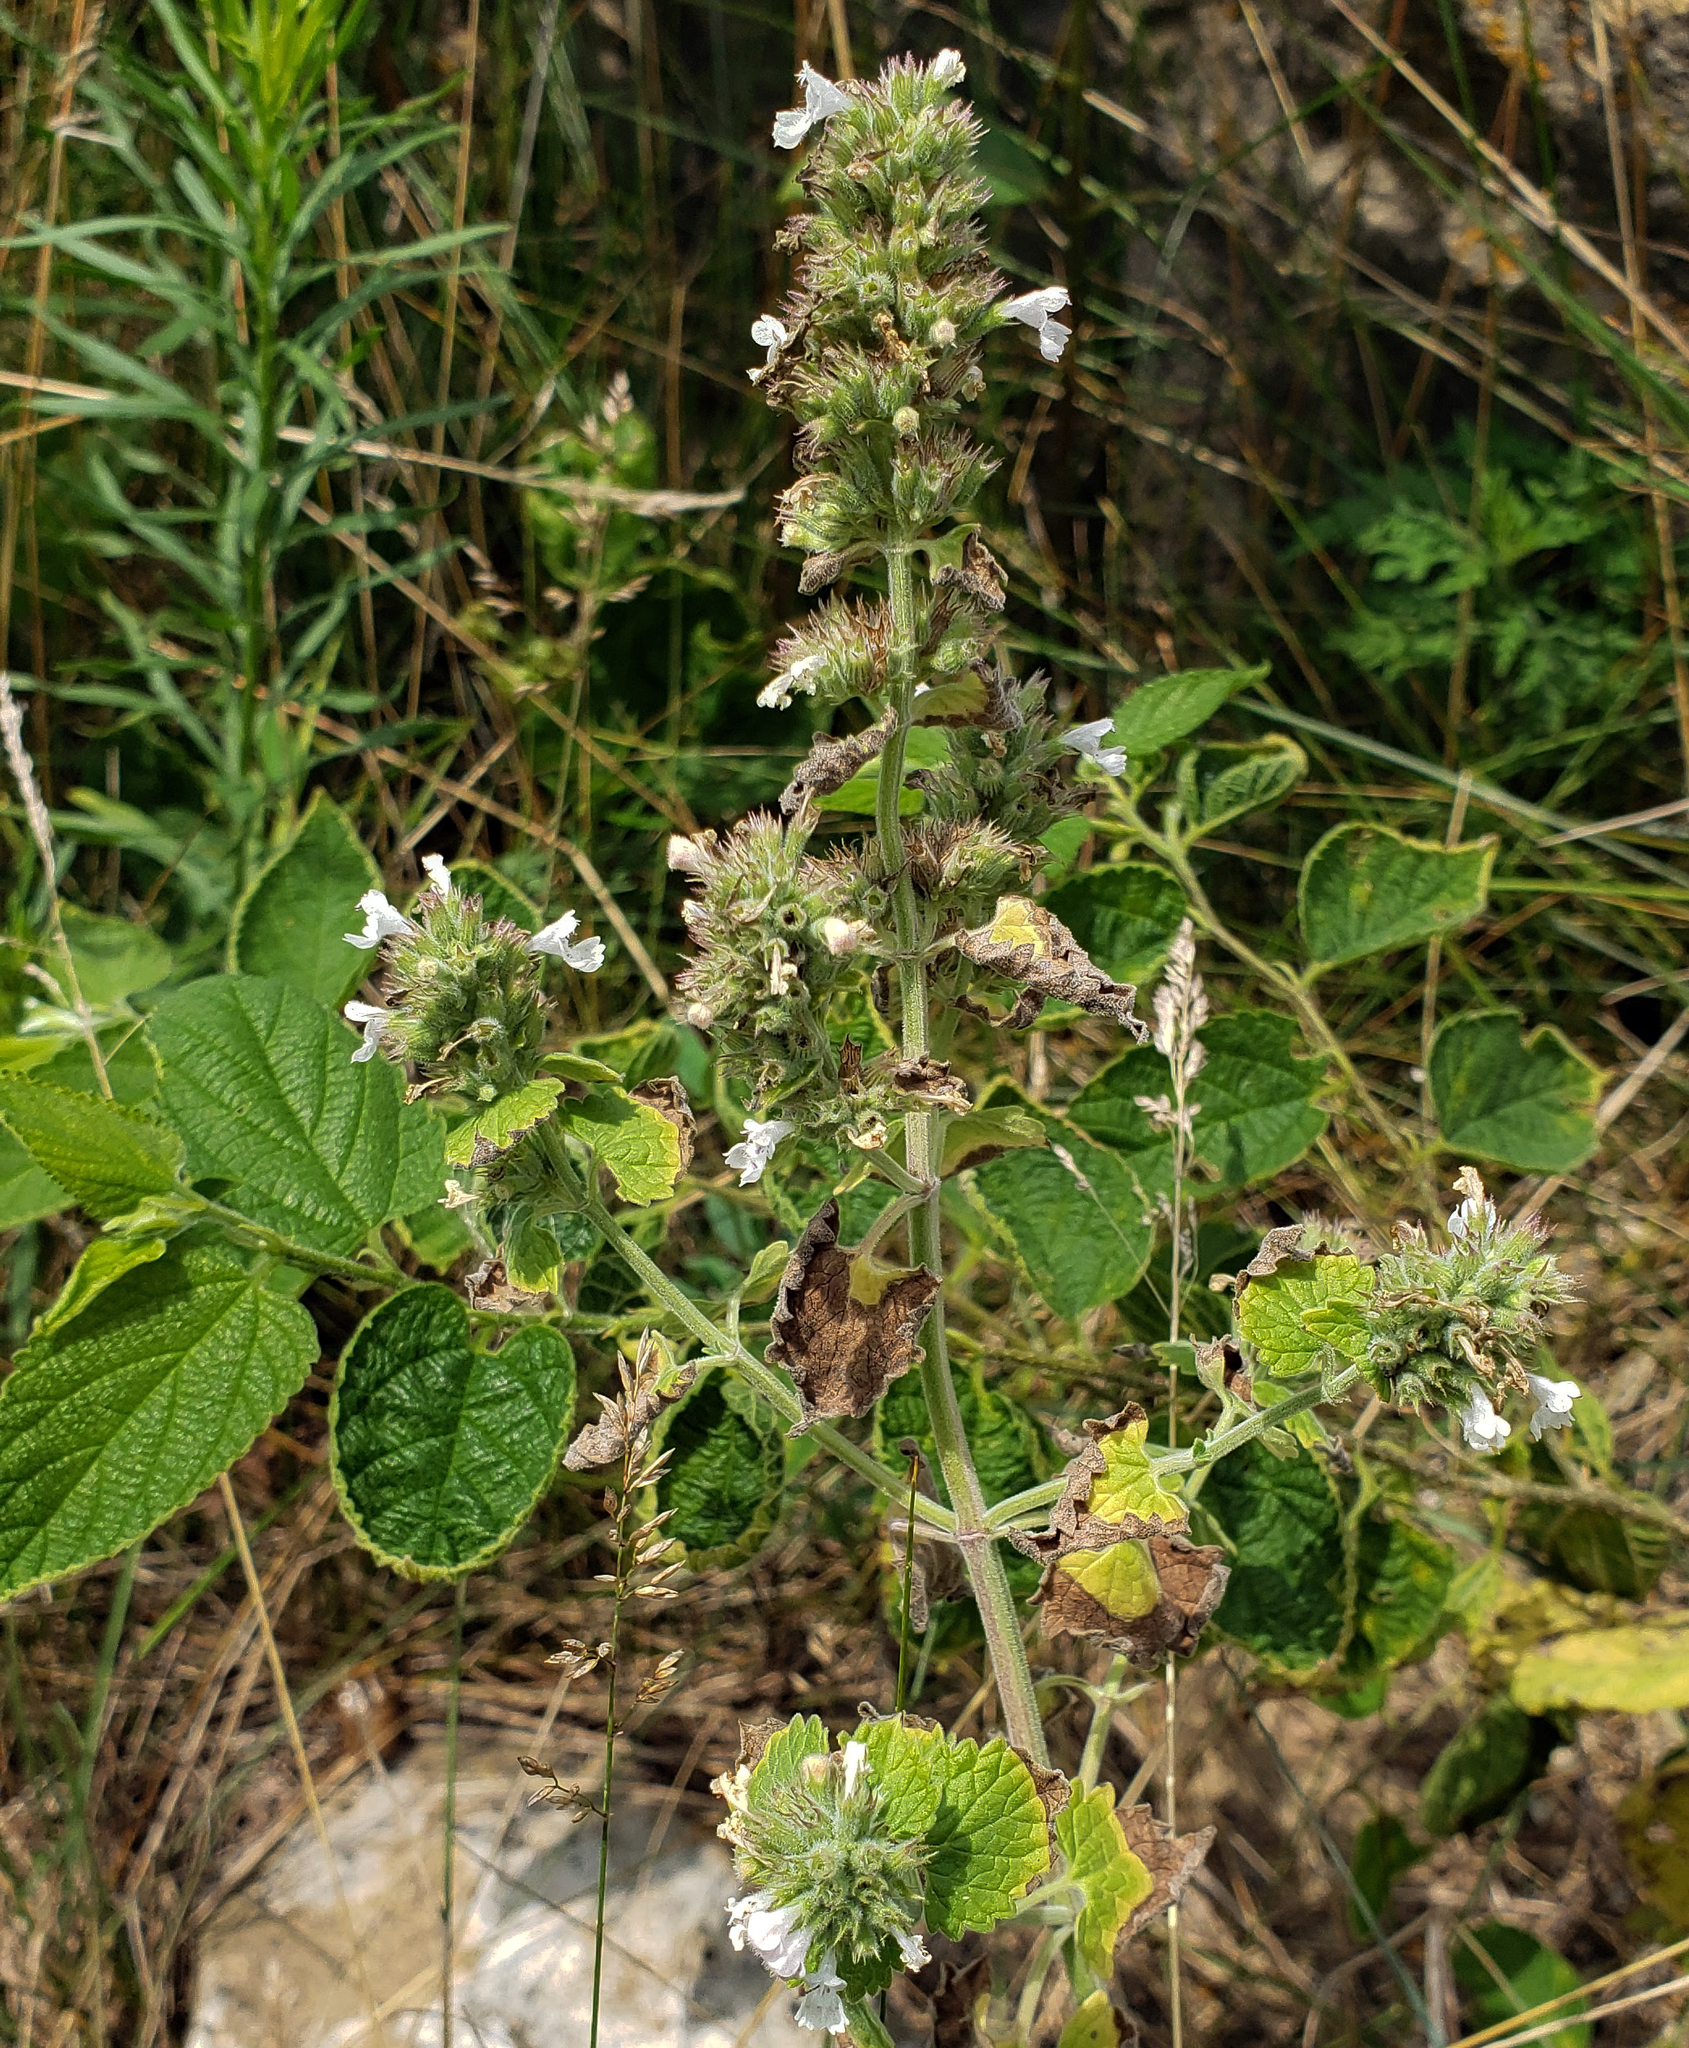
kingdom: Plantae
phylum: Tracheophyta
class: Magnoliopsida
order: Lamiales
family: Lamiaceae
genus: Nepeta
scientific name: Nepeta cataria
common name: Catnip
